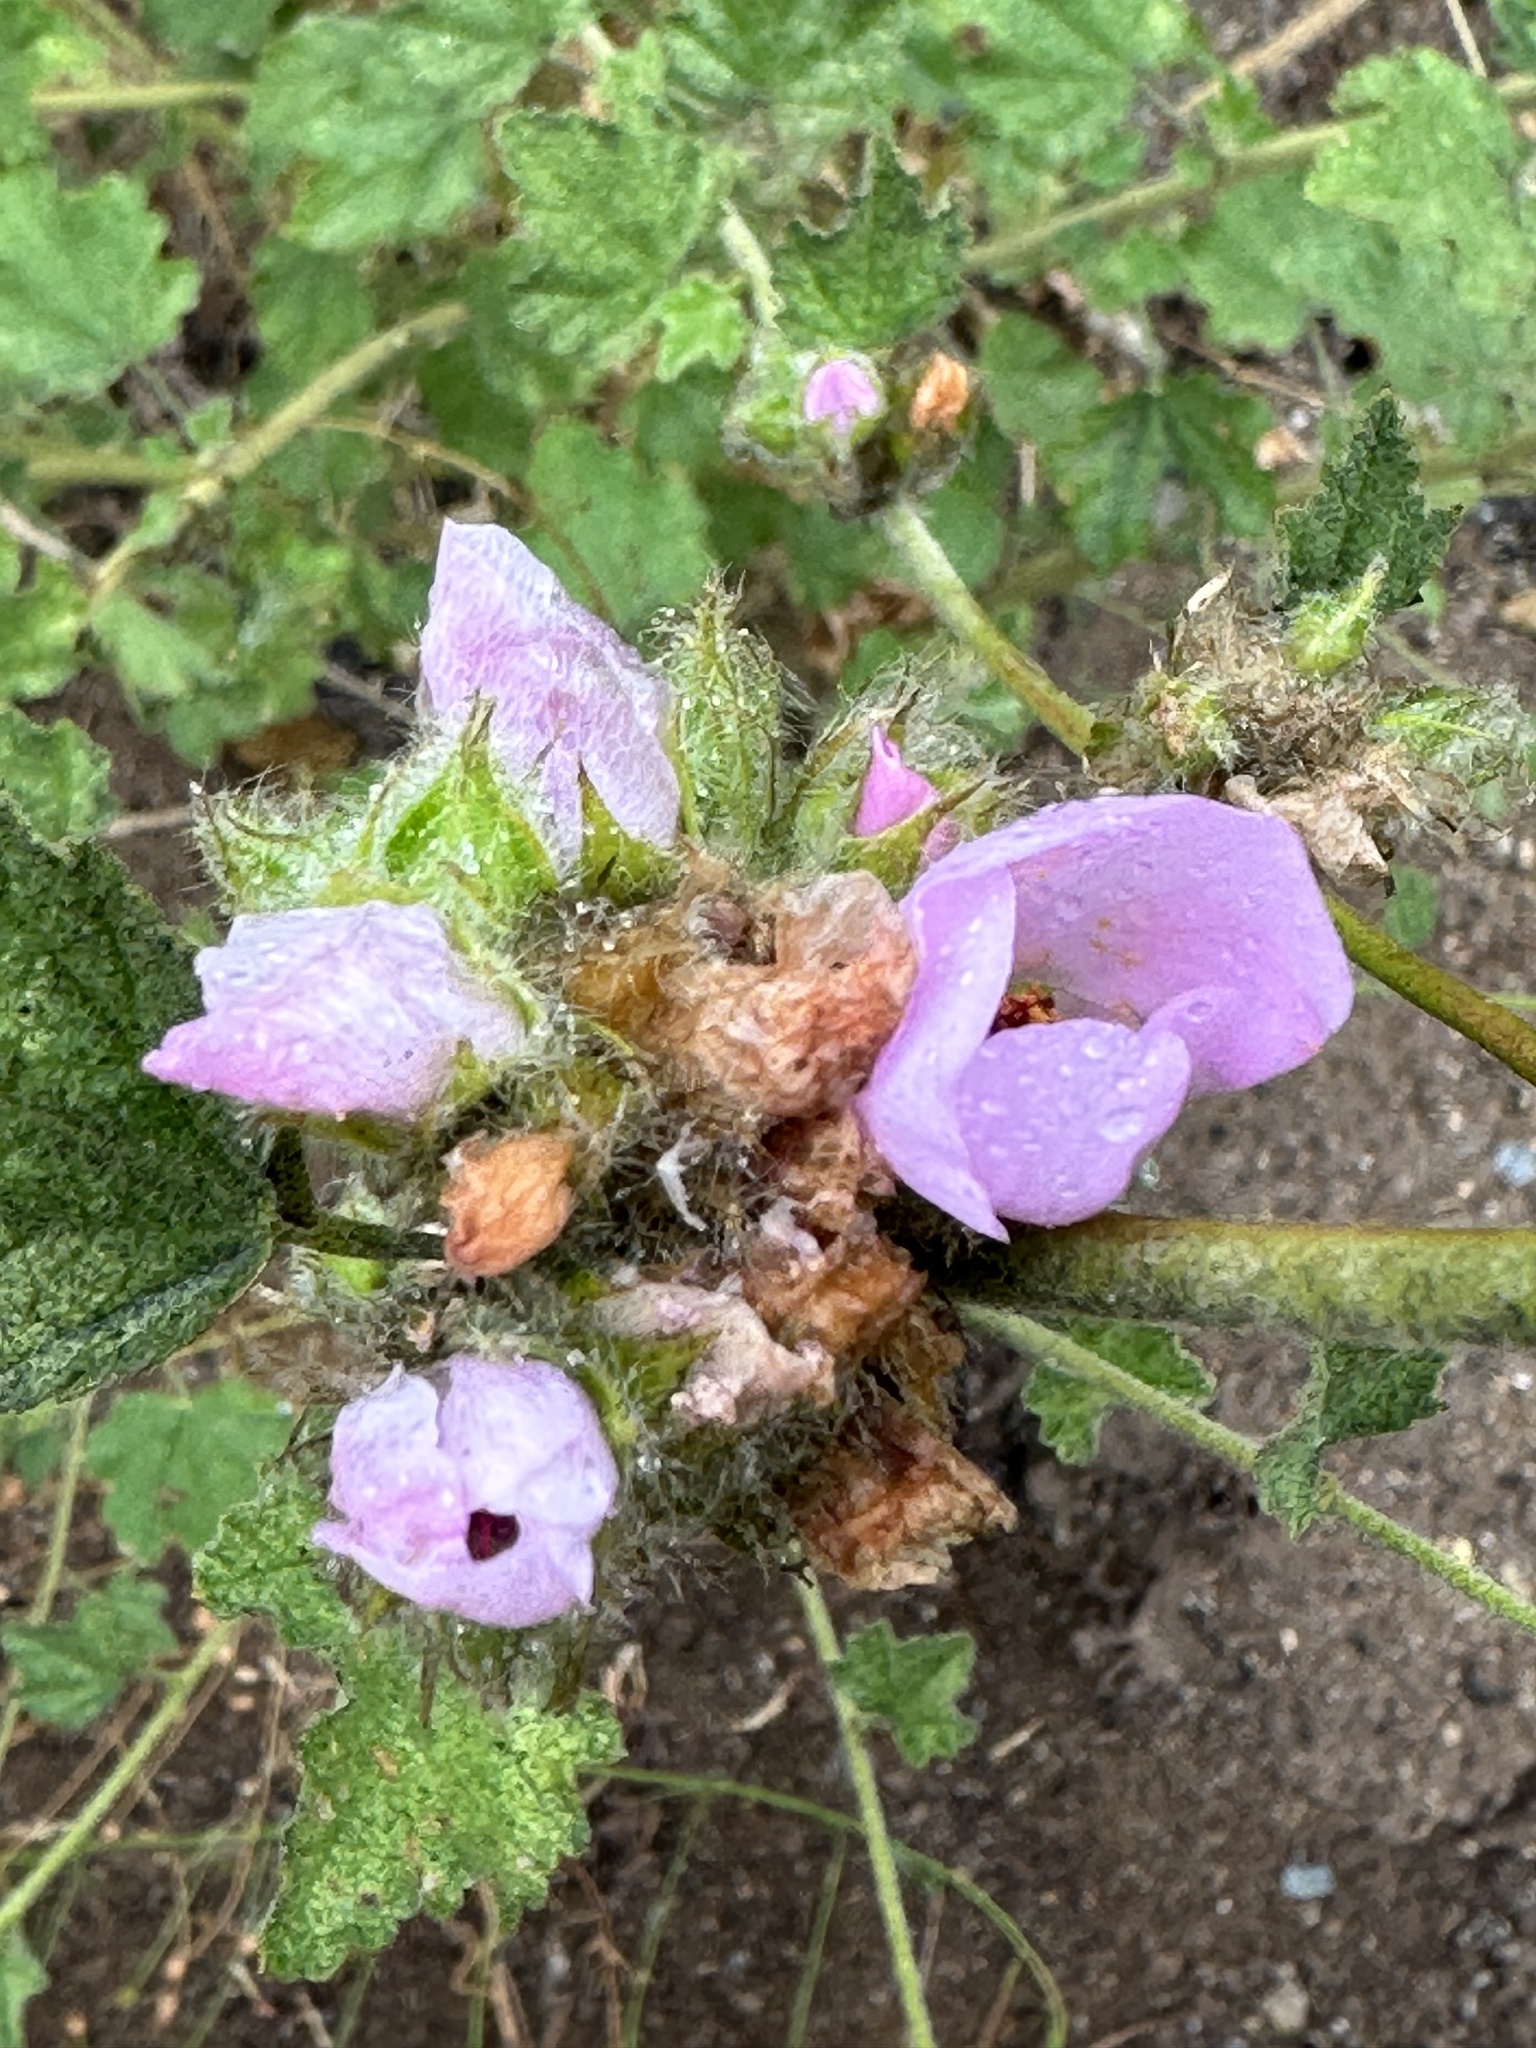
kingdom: Plantae
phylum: Tracheophyta
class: Magnoliopsida
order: Malvales
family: Malvaceae
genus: Malacothamnus
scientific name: Malacothamnus densiflorus
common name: Yellow-stem bush-mallow
